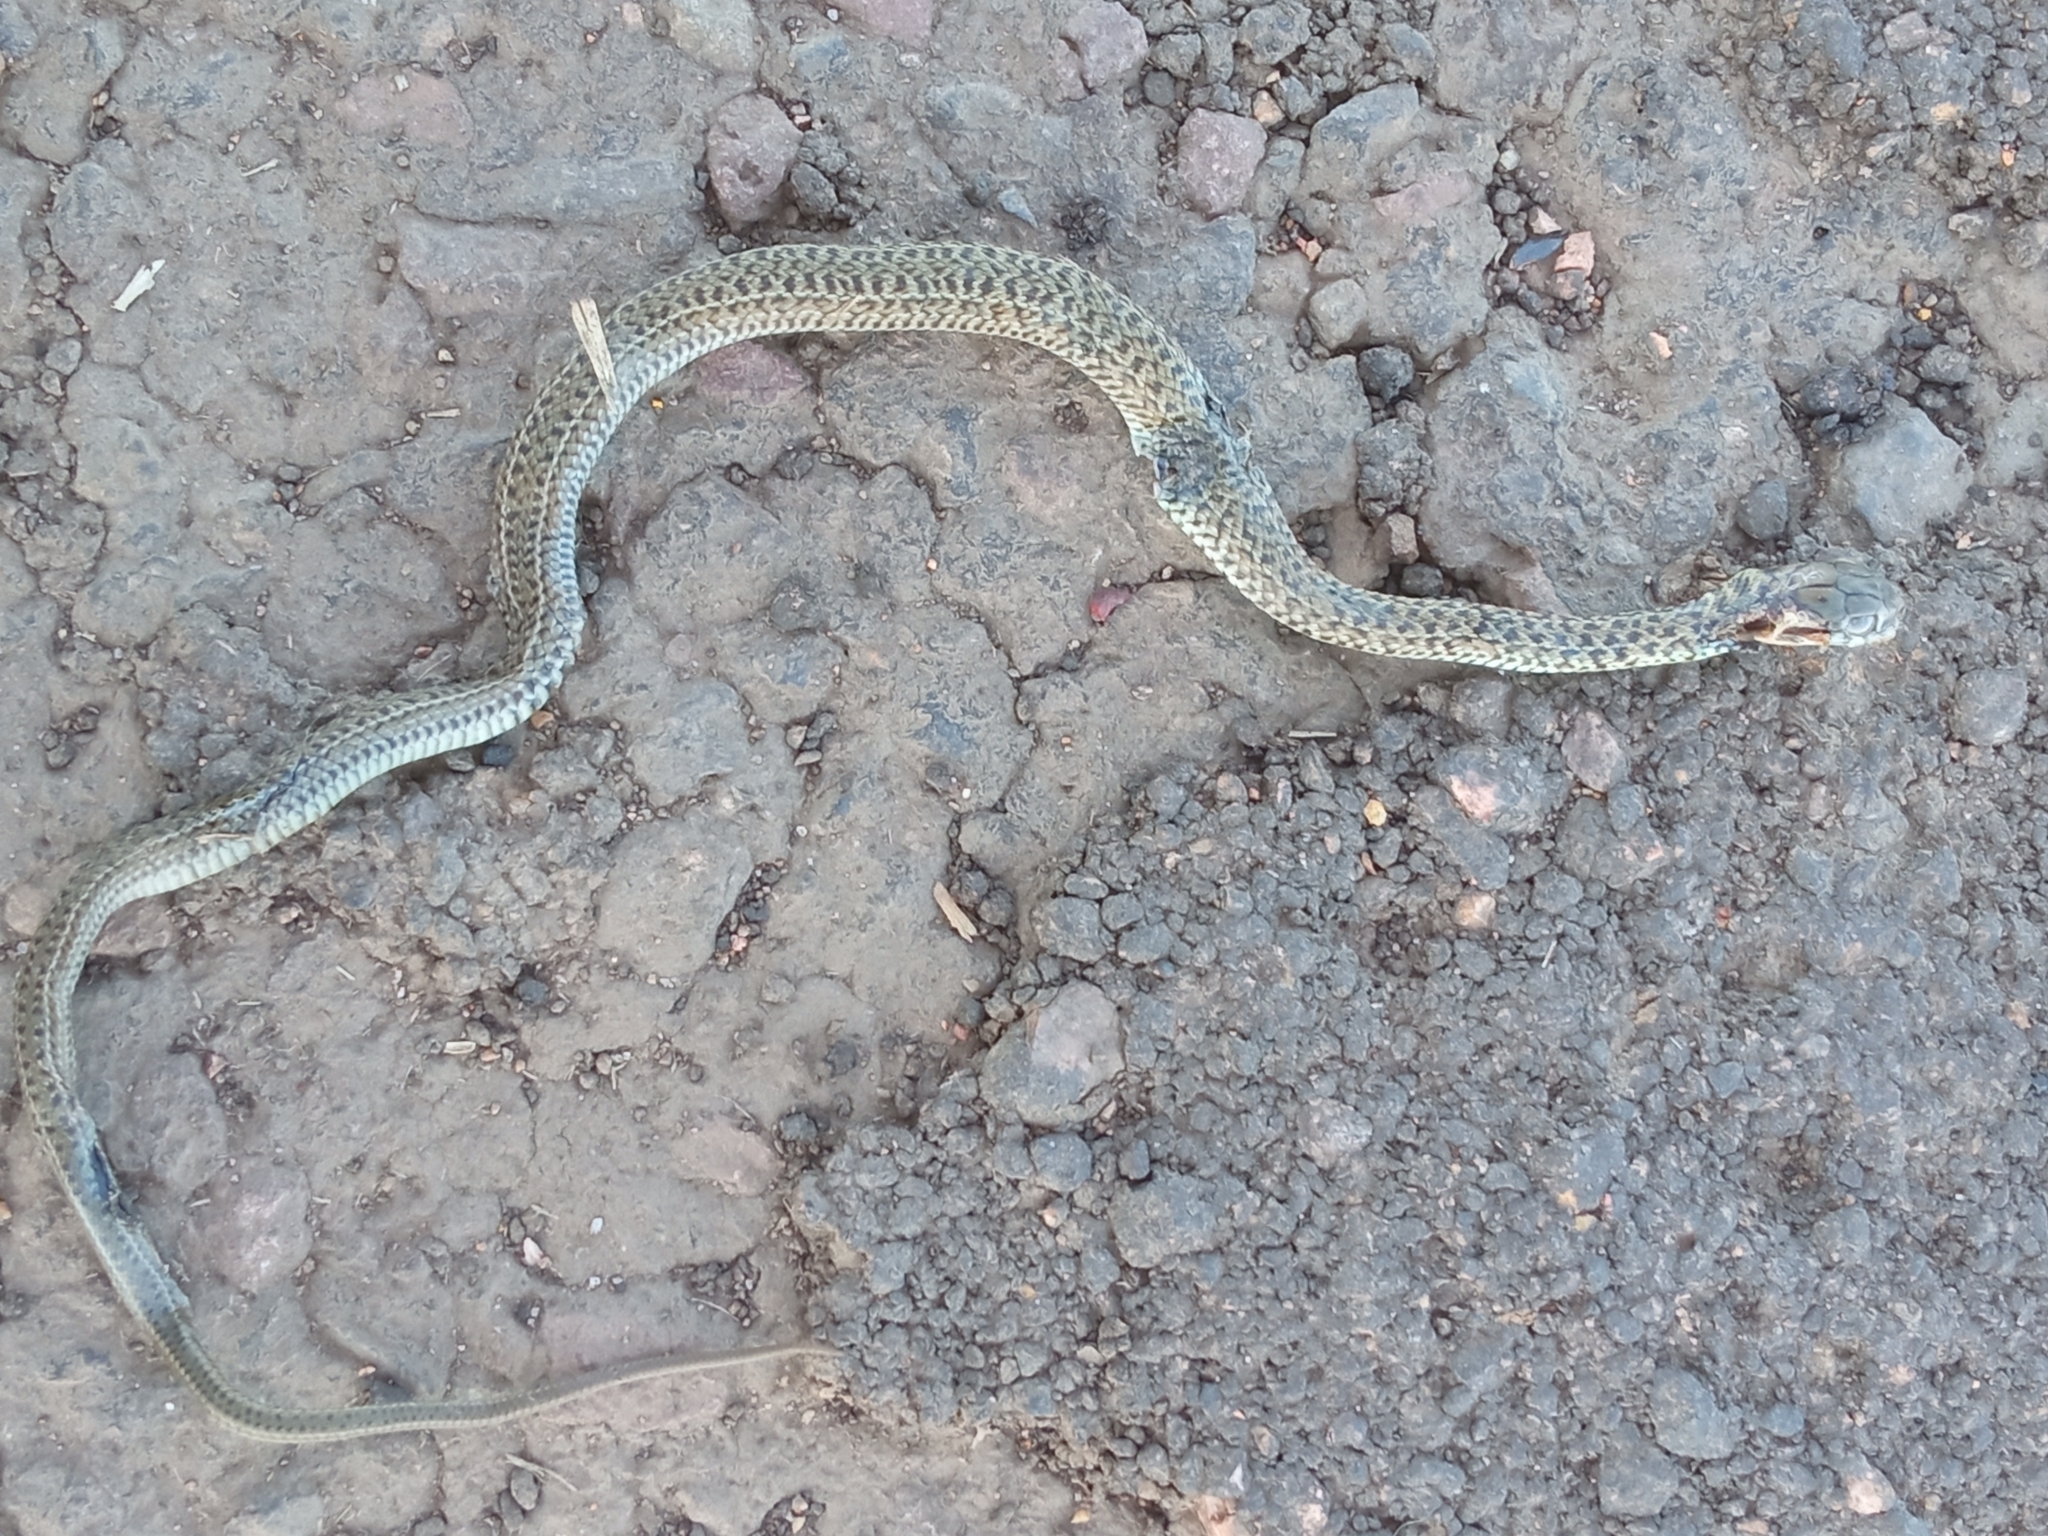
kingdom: Animalia
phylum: Chordata
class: Squamata
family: Colubridae
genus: Philodryas
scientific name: Philodryas patagoniensis
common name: Patagonia green racer
